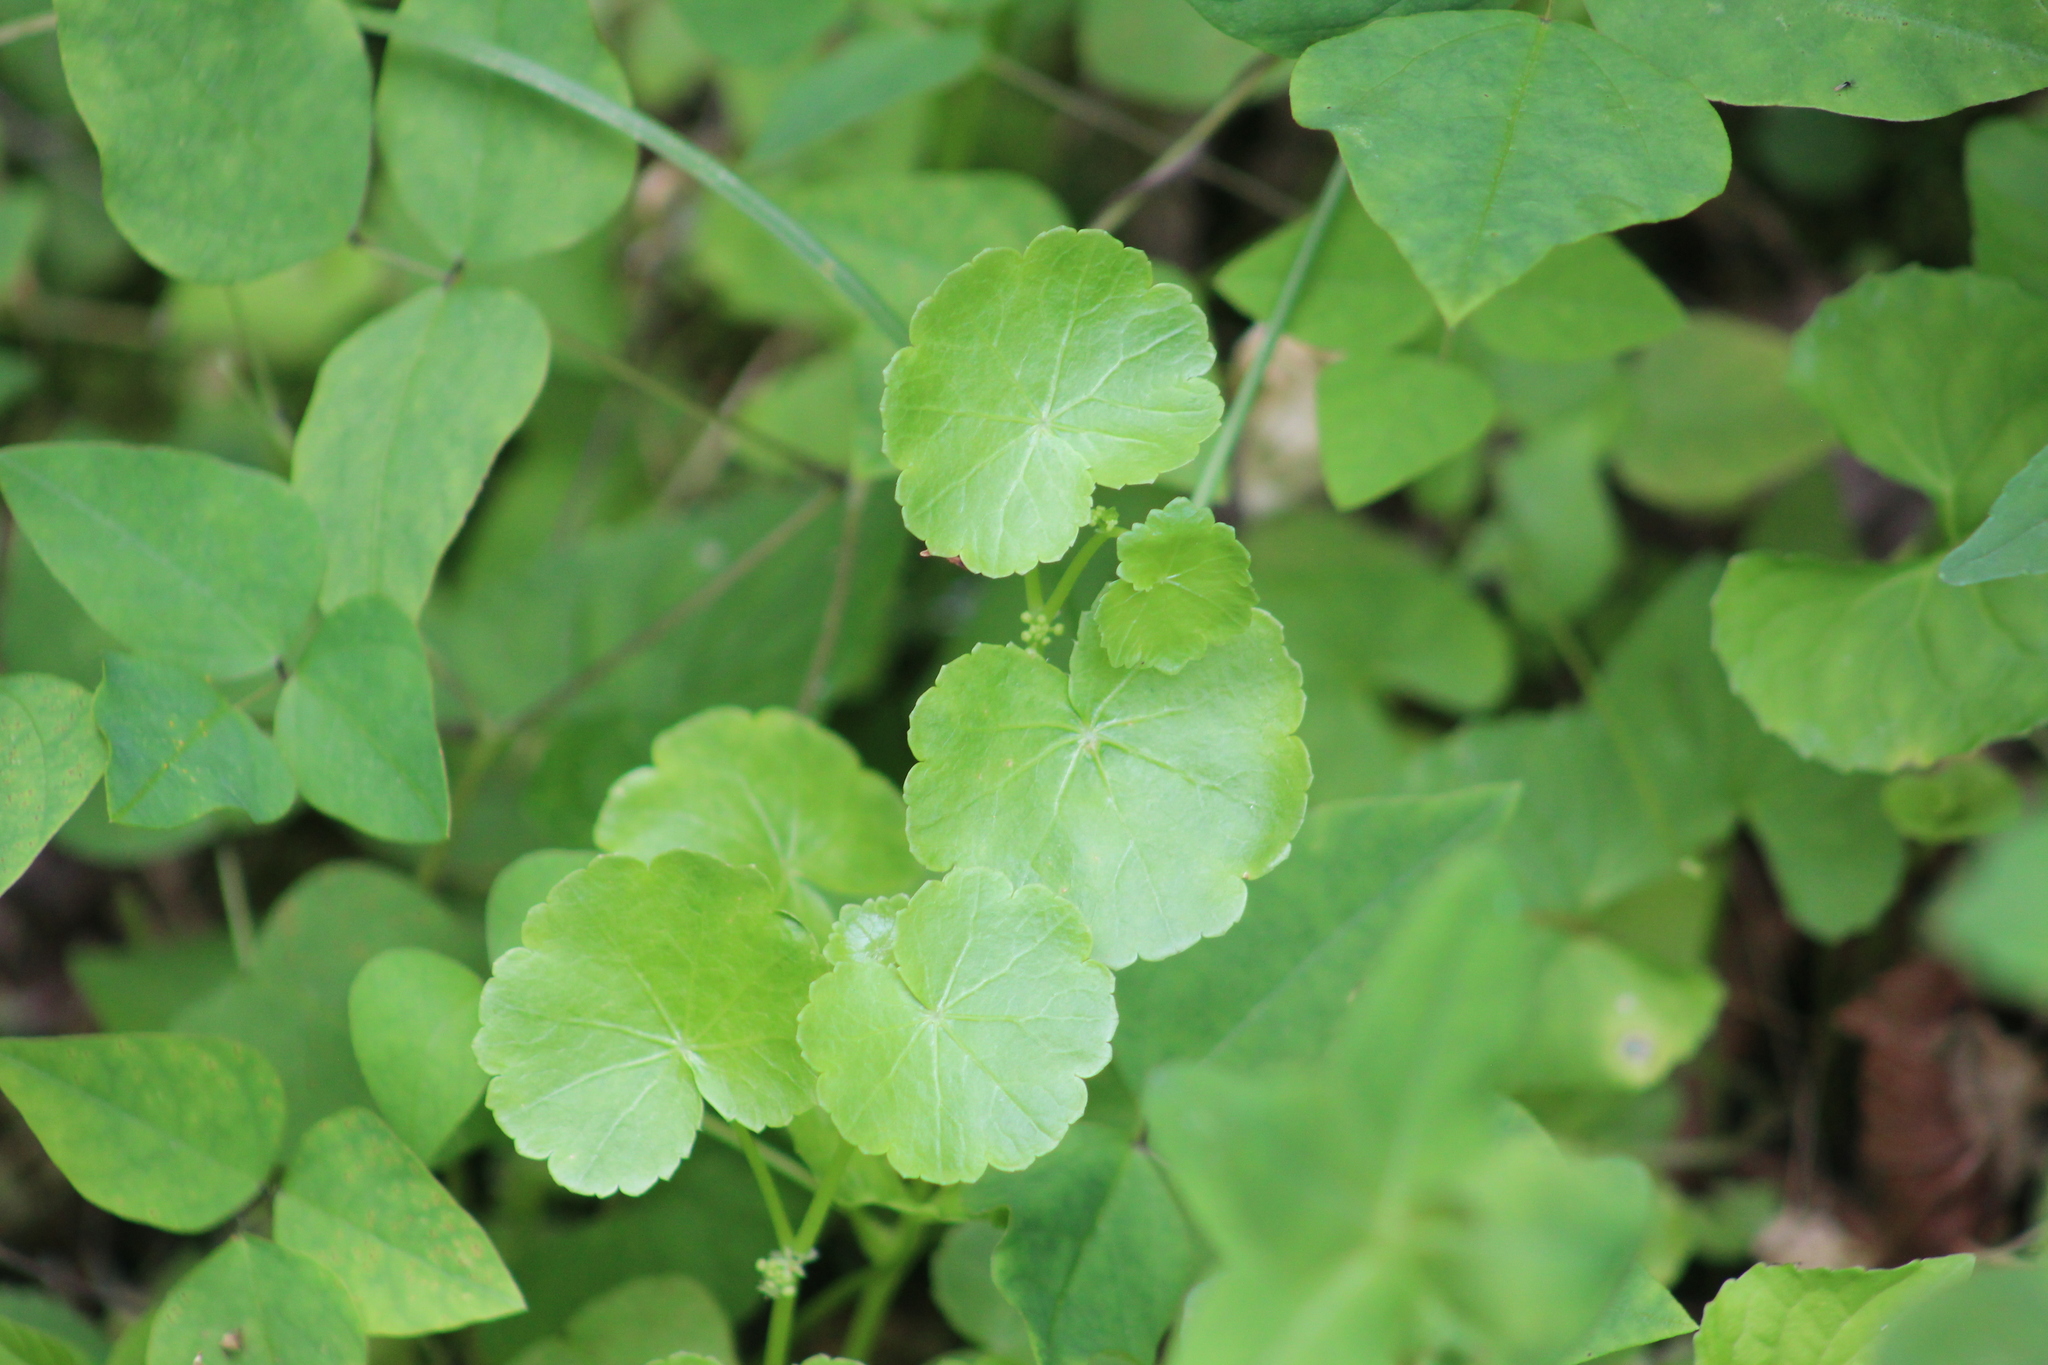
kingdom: Plantae
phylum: Tracheophyta
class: Magnoliopsida
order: Apiales
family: Araliaceae
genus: Hydrocotyle
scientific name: Hydrocotyle americana
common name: American water-pennywort
